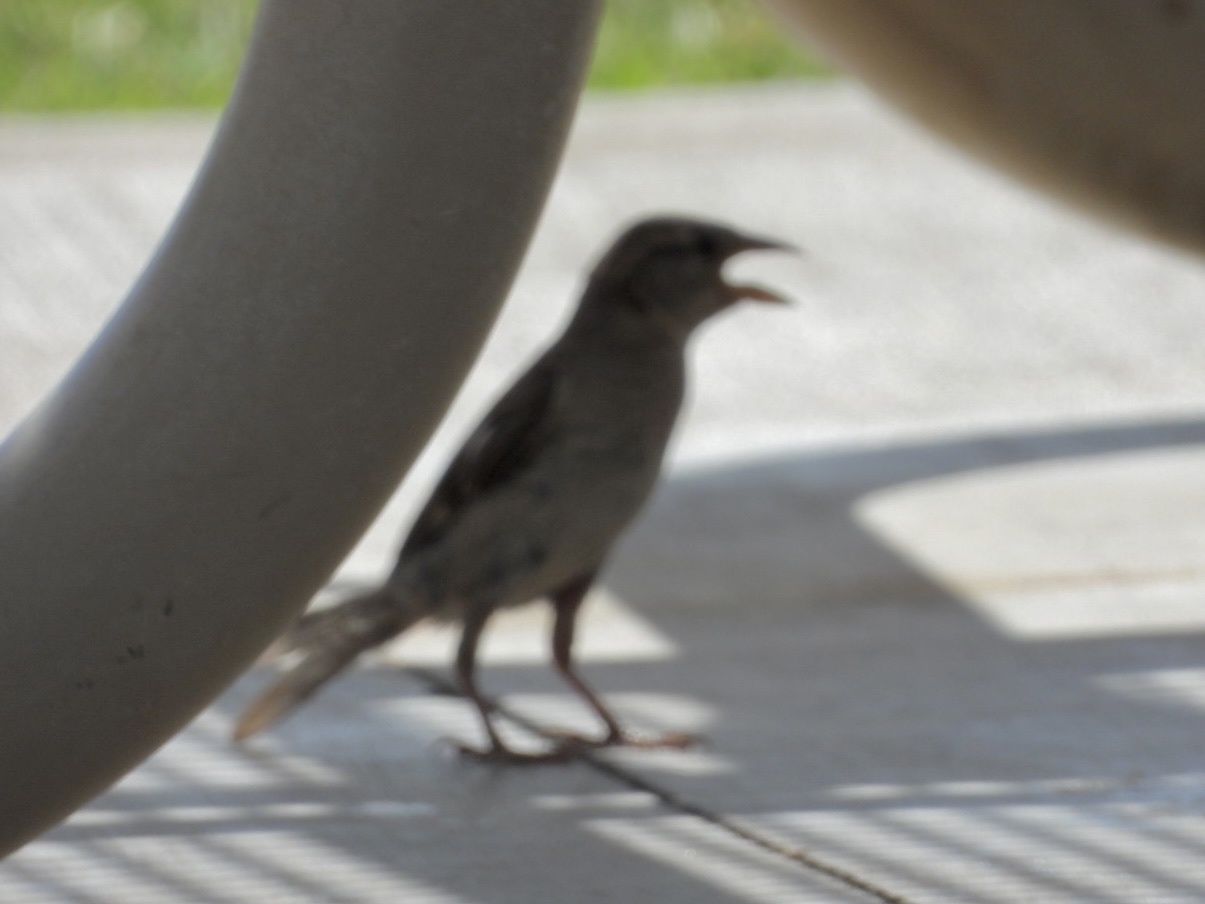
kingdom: Animalia
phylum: Chordata
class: Aves
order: Passeriformes
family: Passeridae
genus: Passer
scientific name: Passer domesticus
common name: House sparrow
